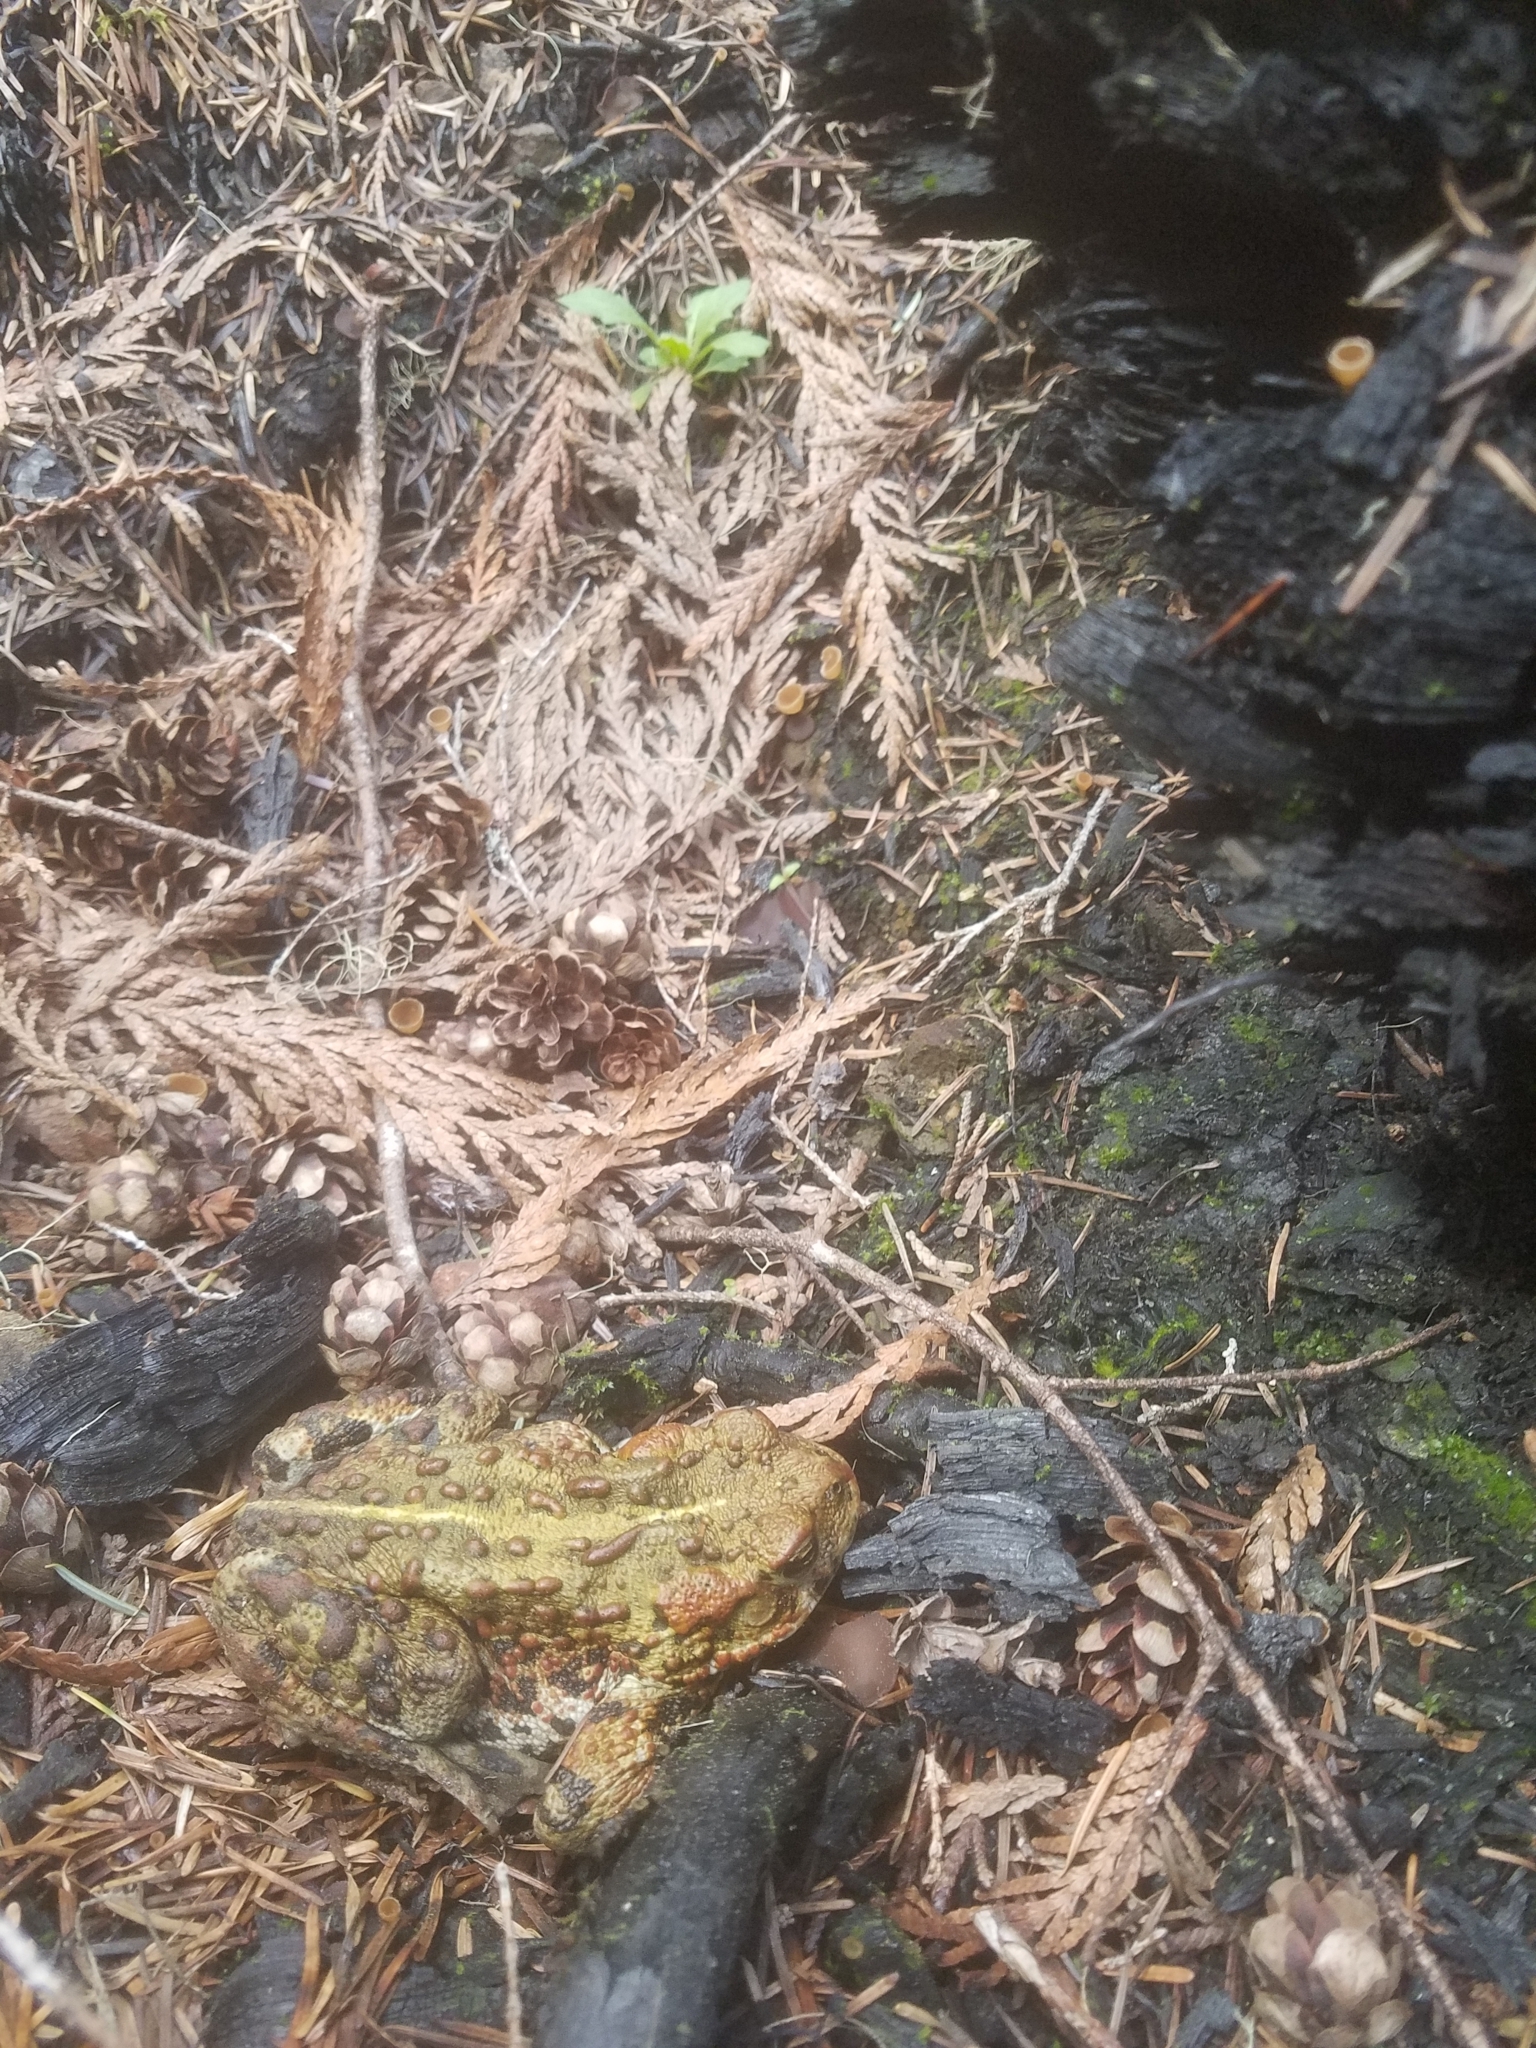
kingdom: Animalia
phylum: Chordata
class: Amphibia
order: Anura
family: Bufonidae
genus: Anaxyrus
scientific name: Anaxyrus boreas
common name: Western toad
